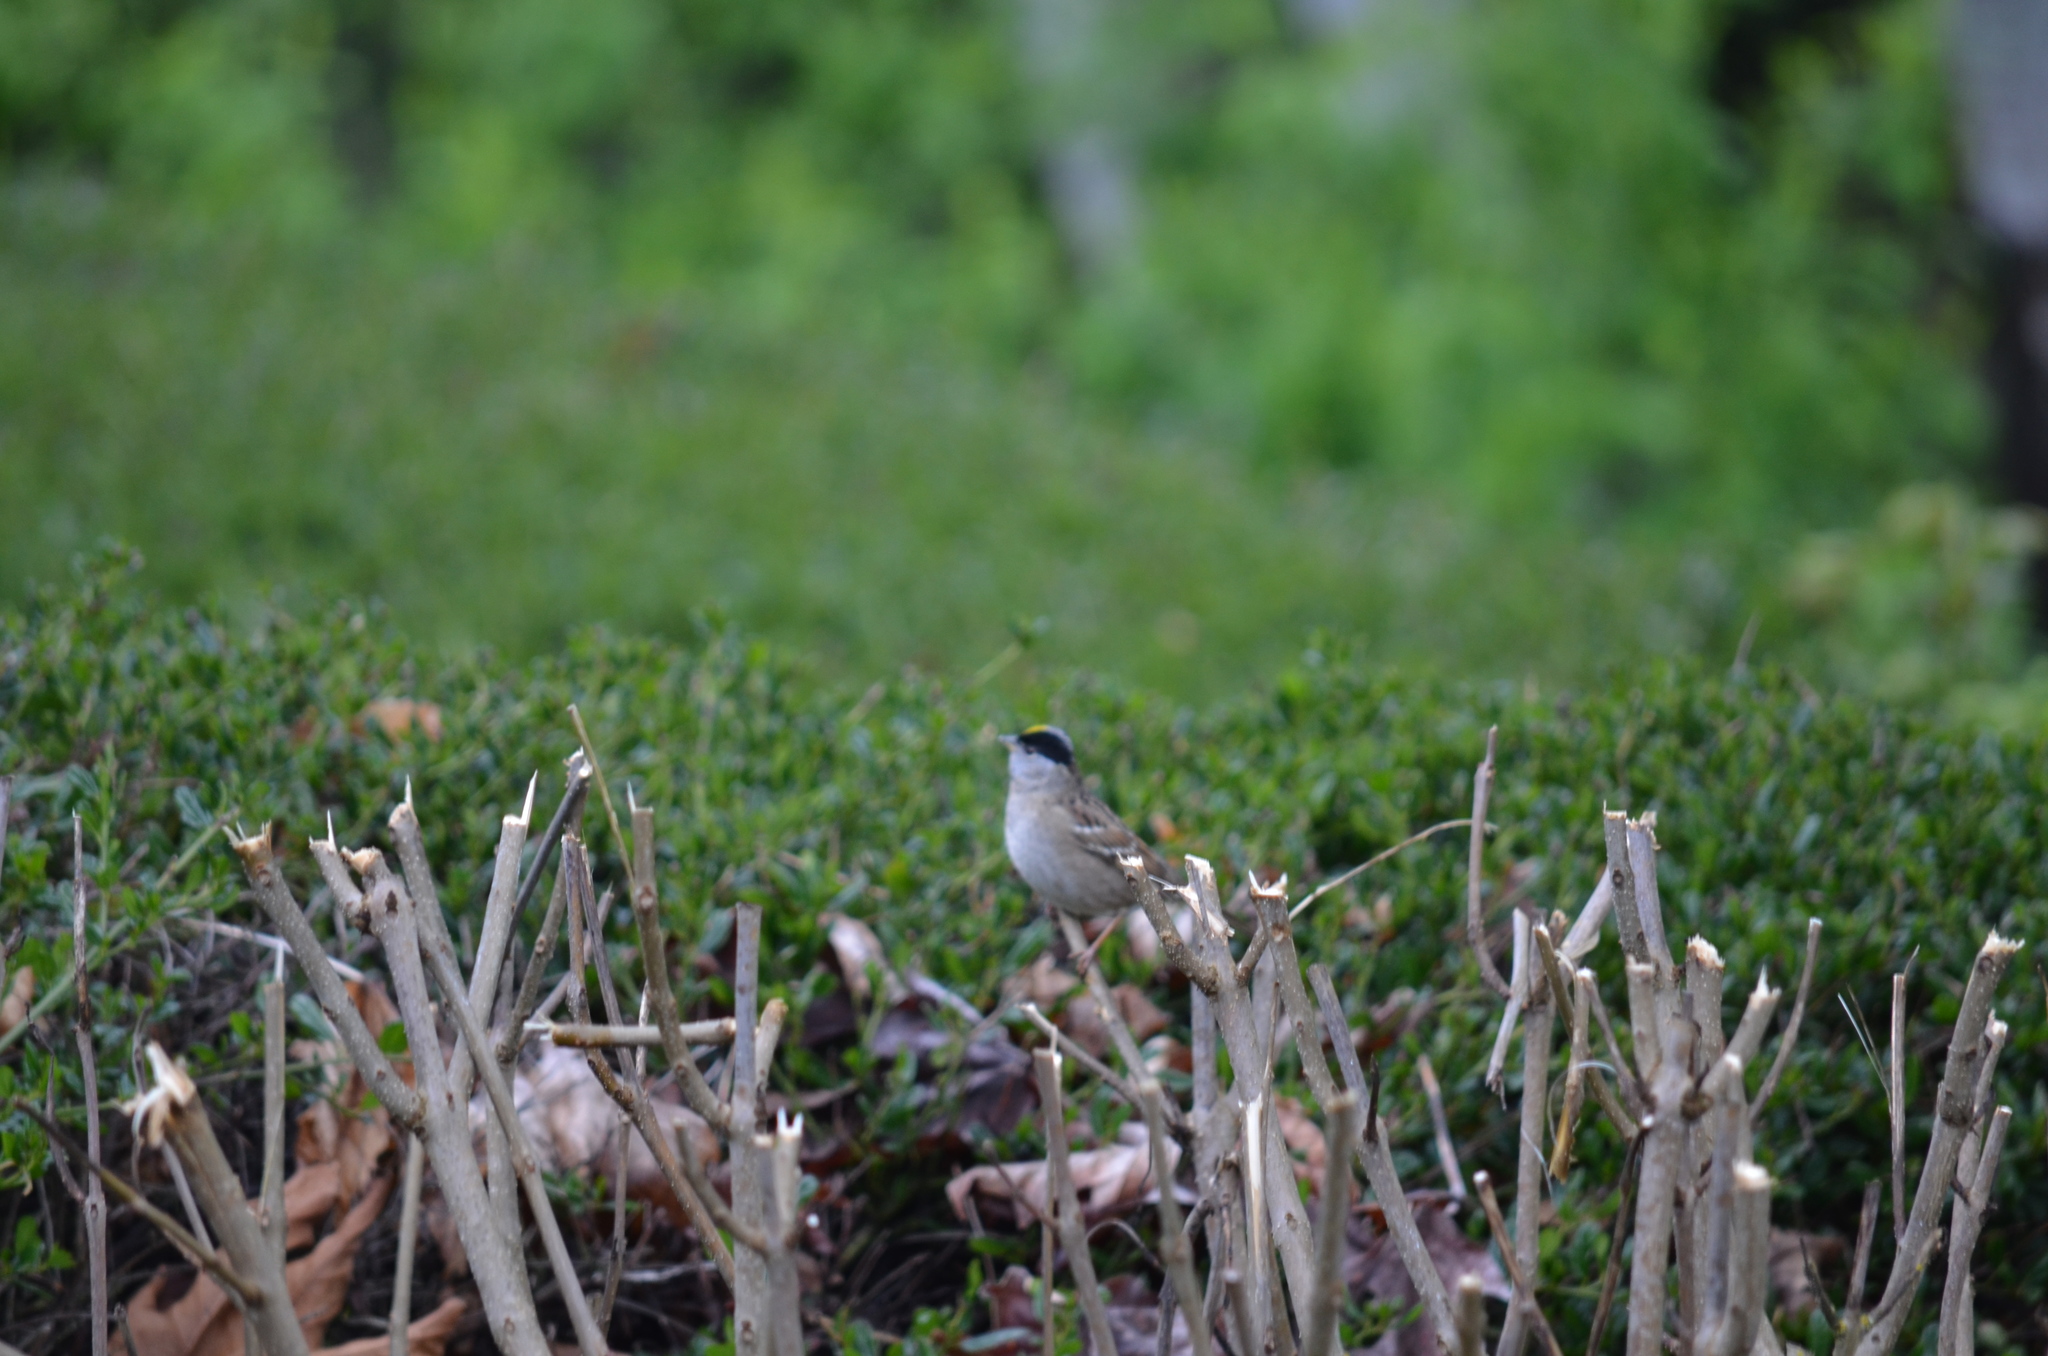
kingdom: Animalia
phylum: Chordata
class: Aves
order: Passeriformes
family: Passerellidae
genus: Zonotrichia
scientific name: Zonotrichia atricapilla
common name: Golden-crowned sparrow
